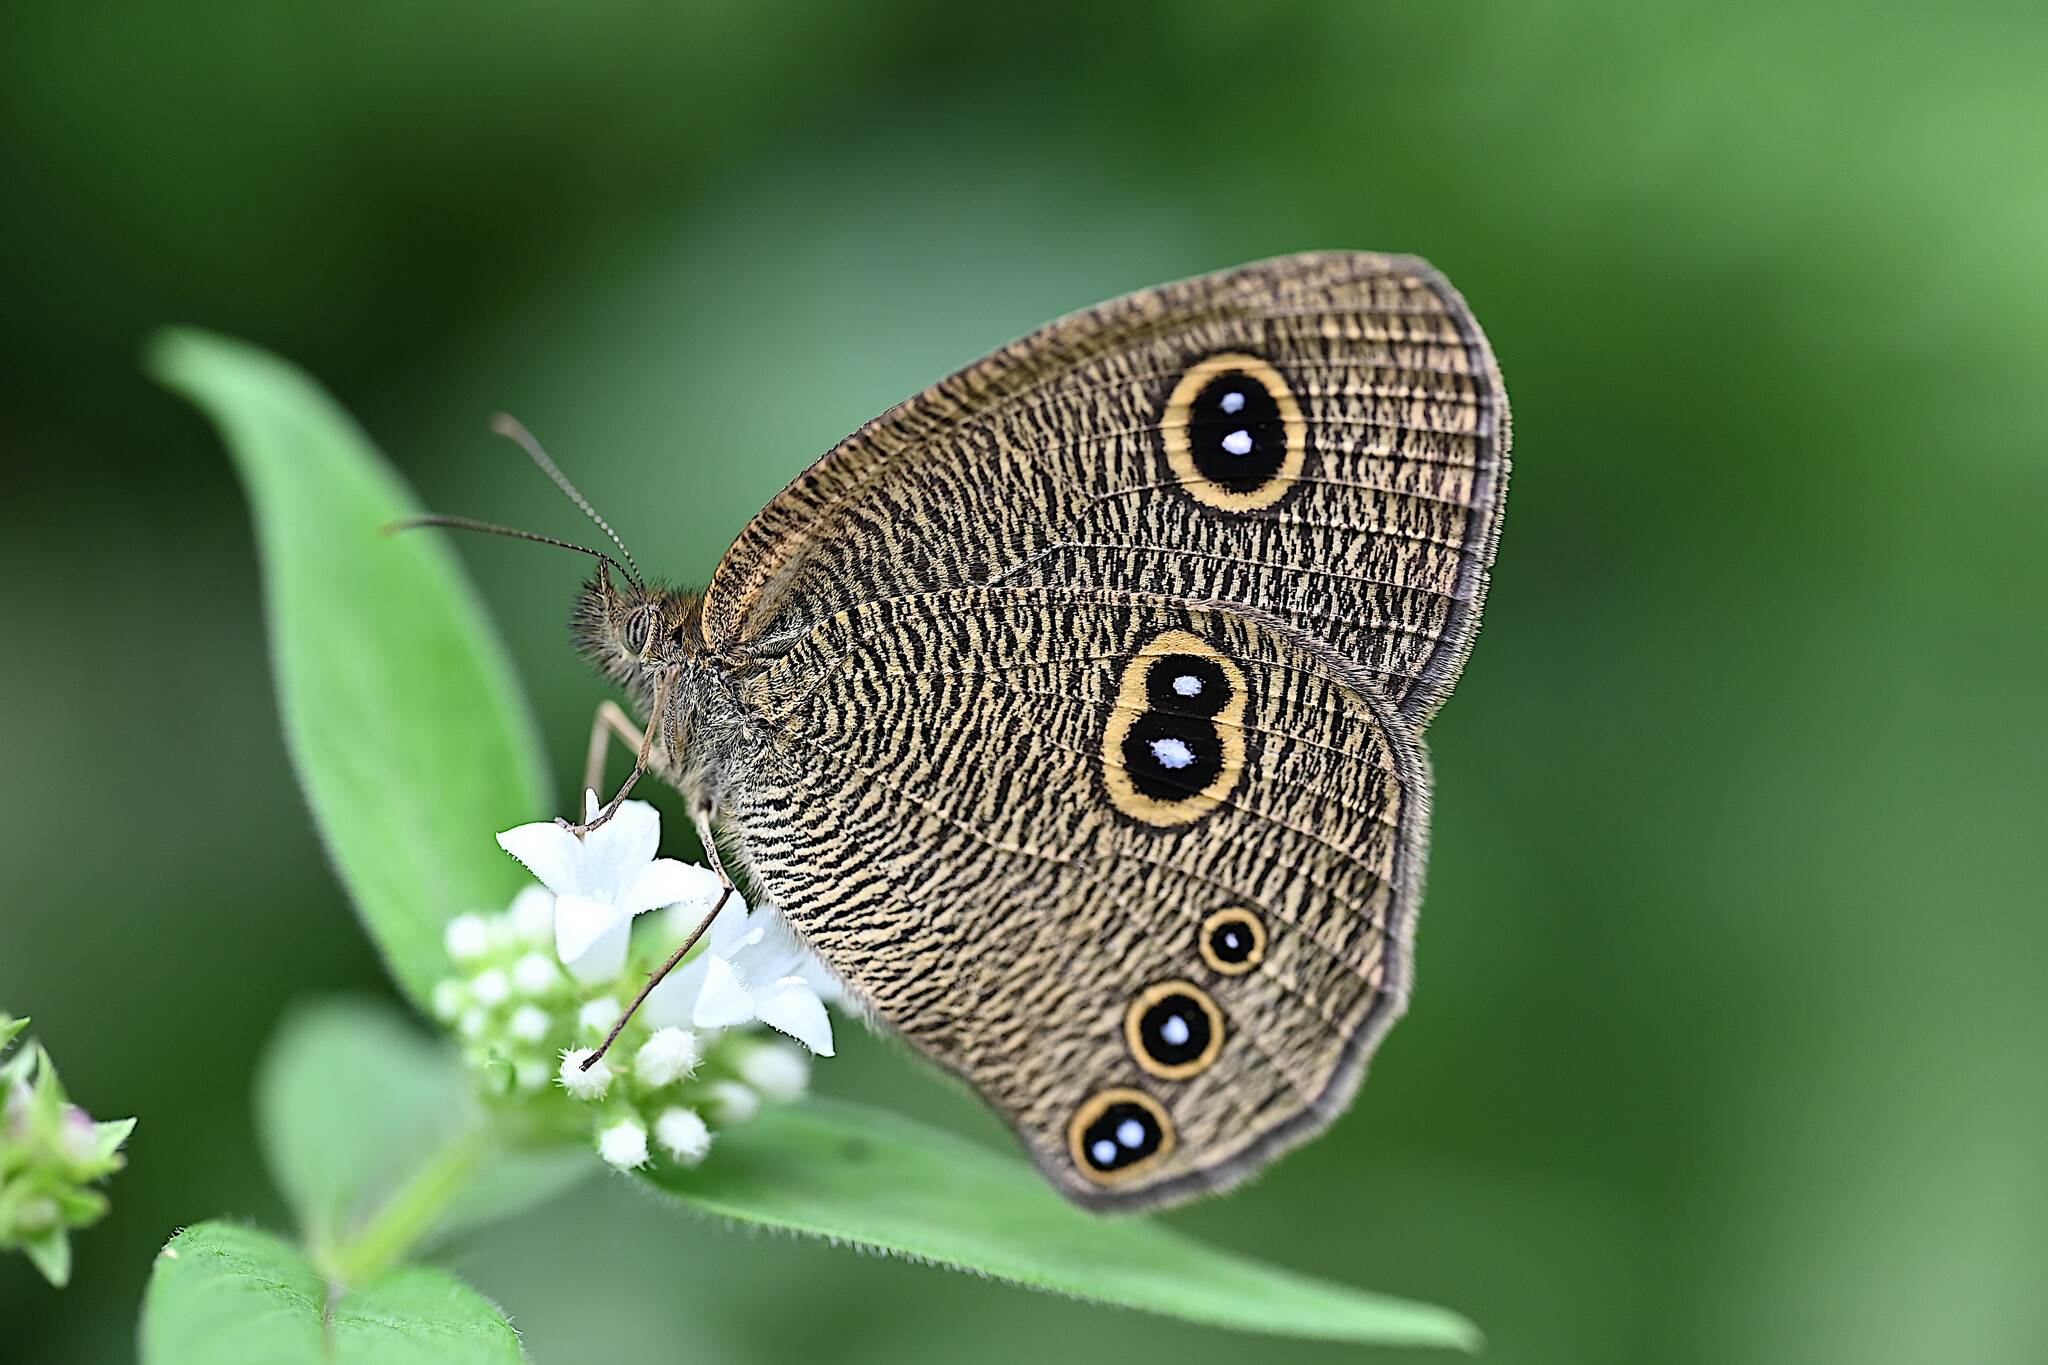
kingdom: Animalia
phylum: Arthropoda
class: Insecta
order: Lepidoptera
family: Nymphalidae
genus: Ypthima
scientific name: Ypthima nikaea
